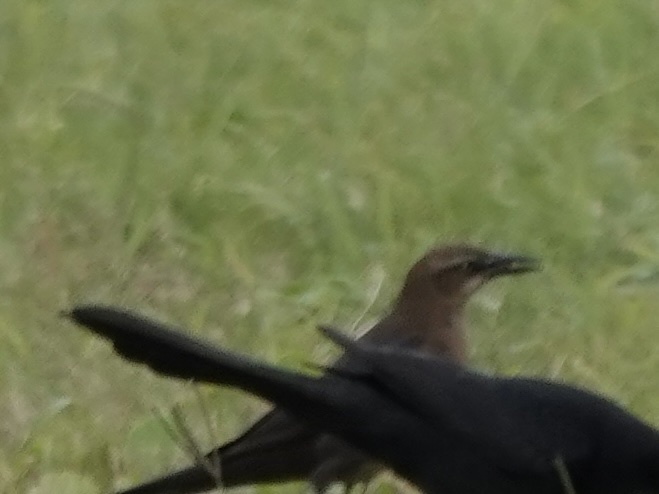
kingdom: Animalia
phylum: Chordata
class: Aves
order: Passeriformes
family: Icteridae
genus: Quiscalus
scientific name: Quiscalus mexicanus
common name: Great-tailed grackle
